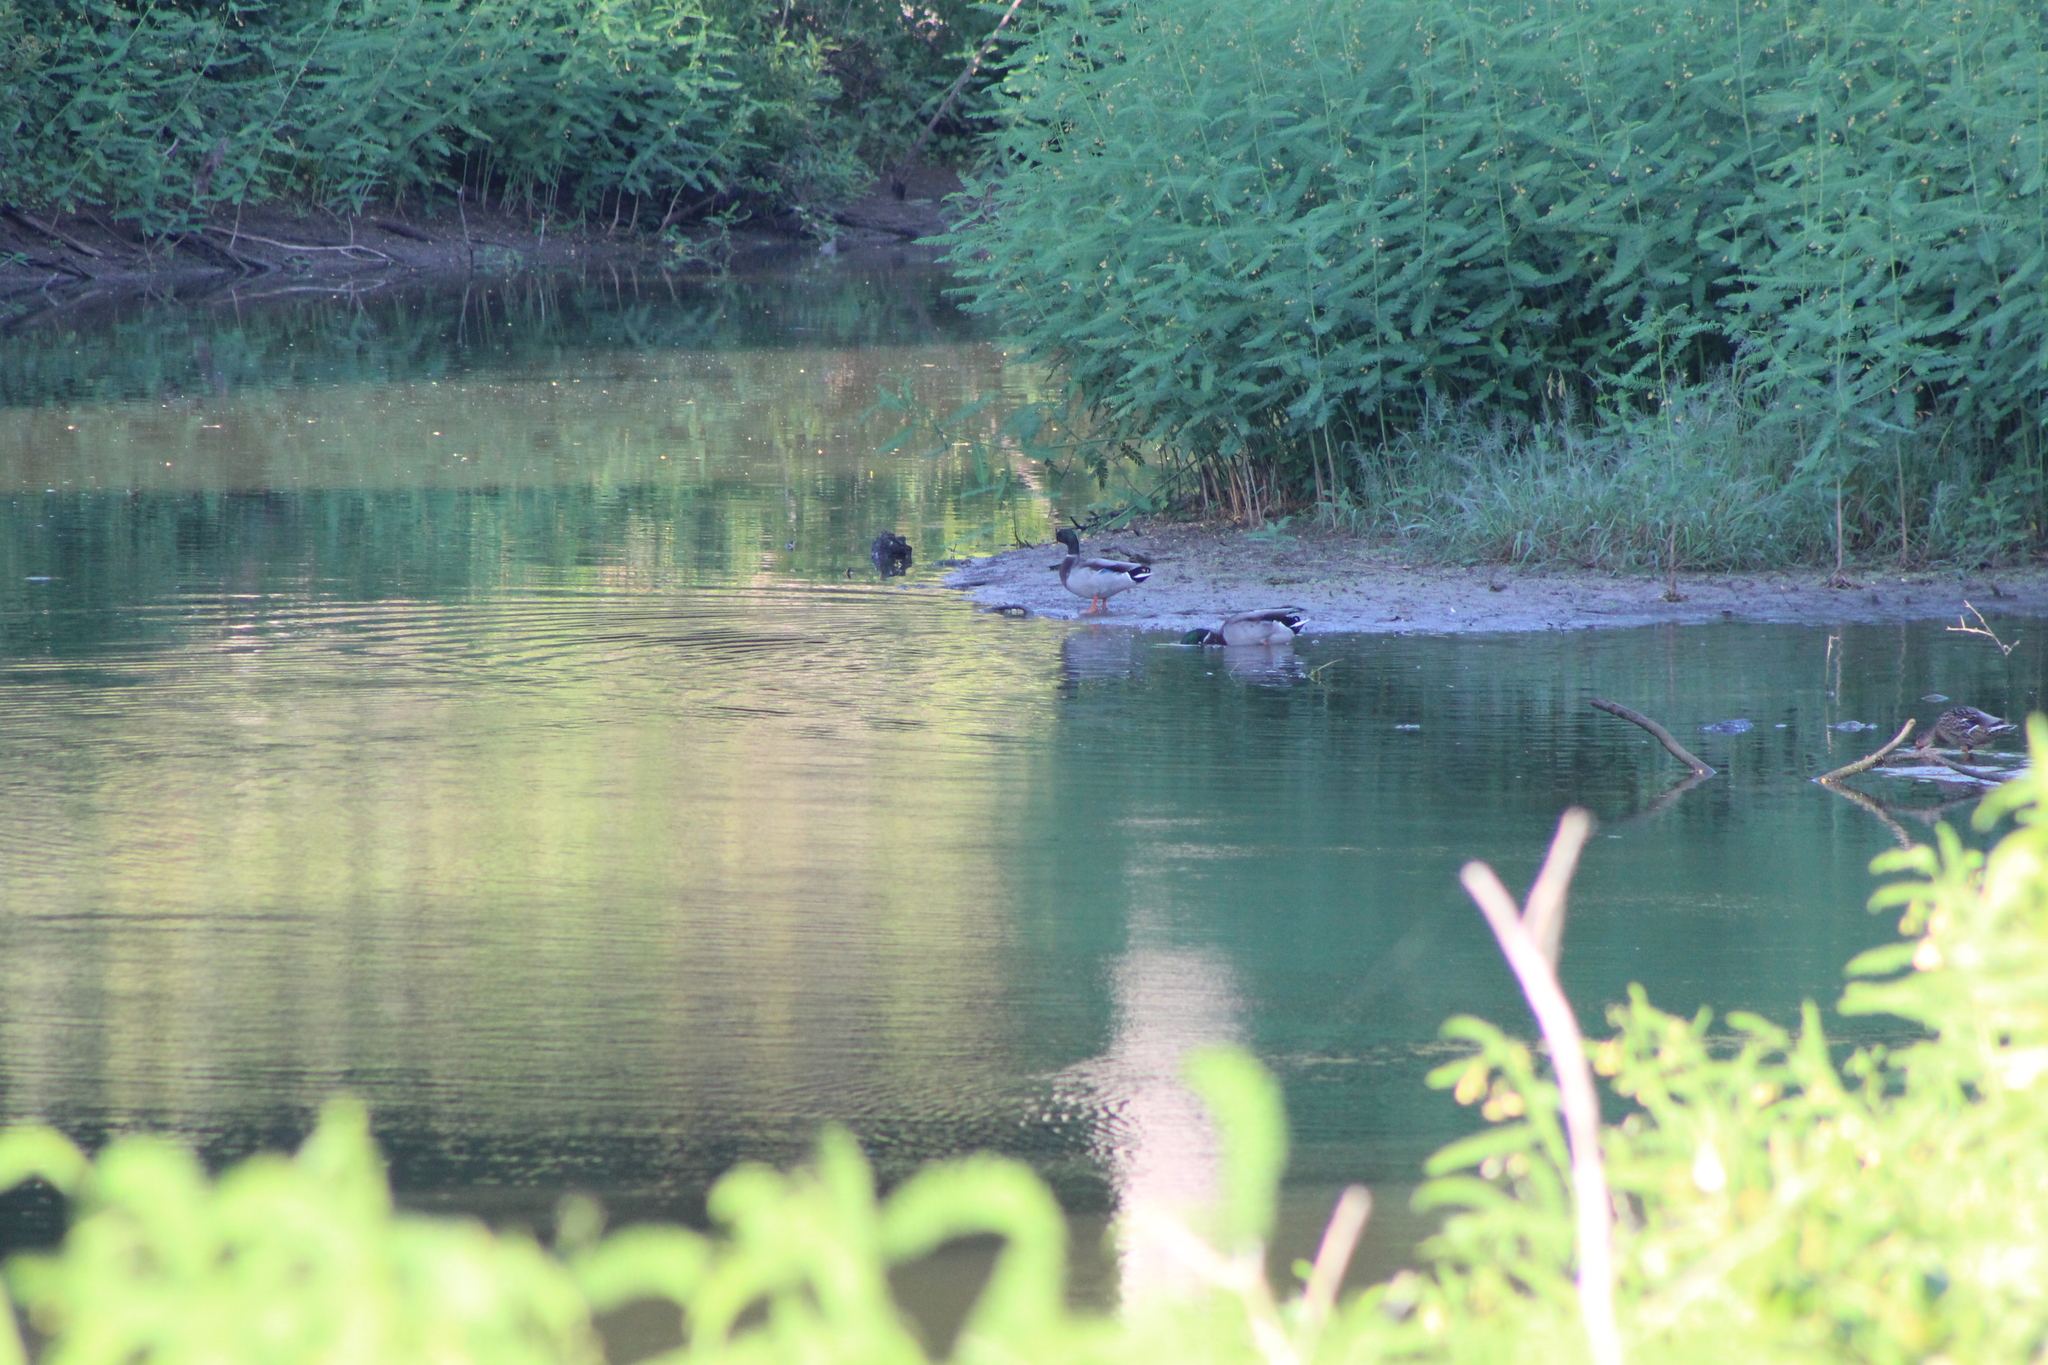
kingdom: Animalia
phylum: Chordata
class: Aves
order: Anseriformes
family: Anatidae
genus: Anas
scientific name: Anas platyrhynchos
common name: Mallard
